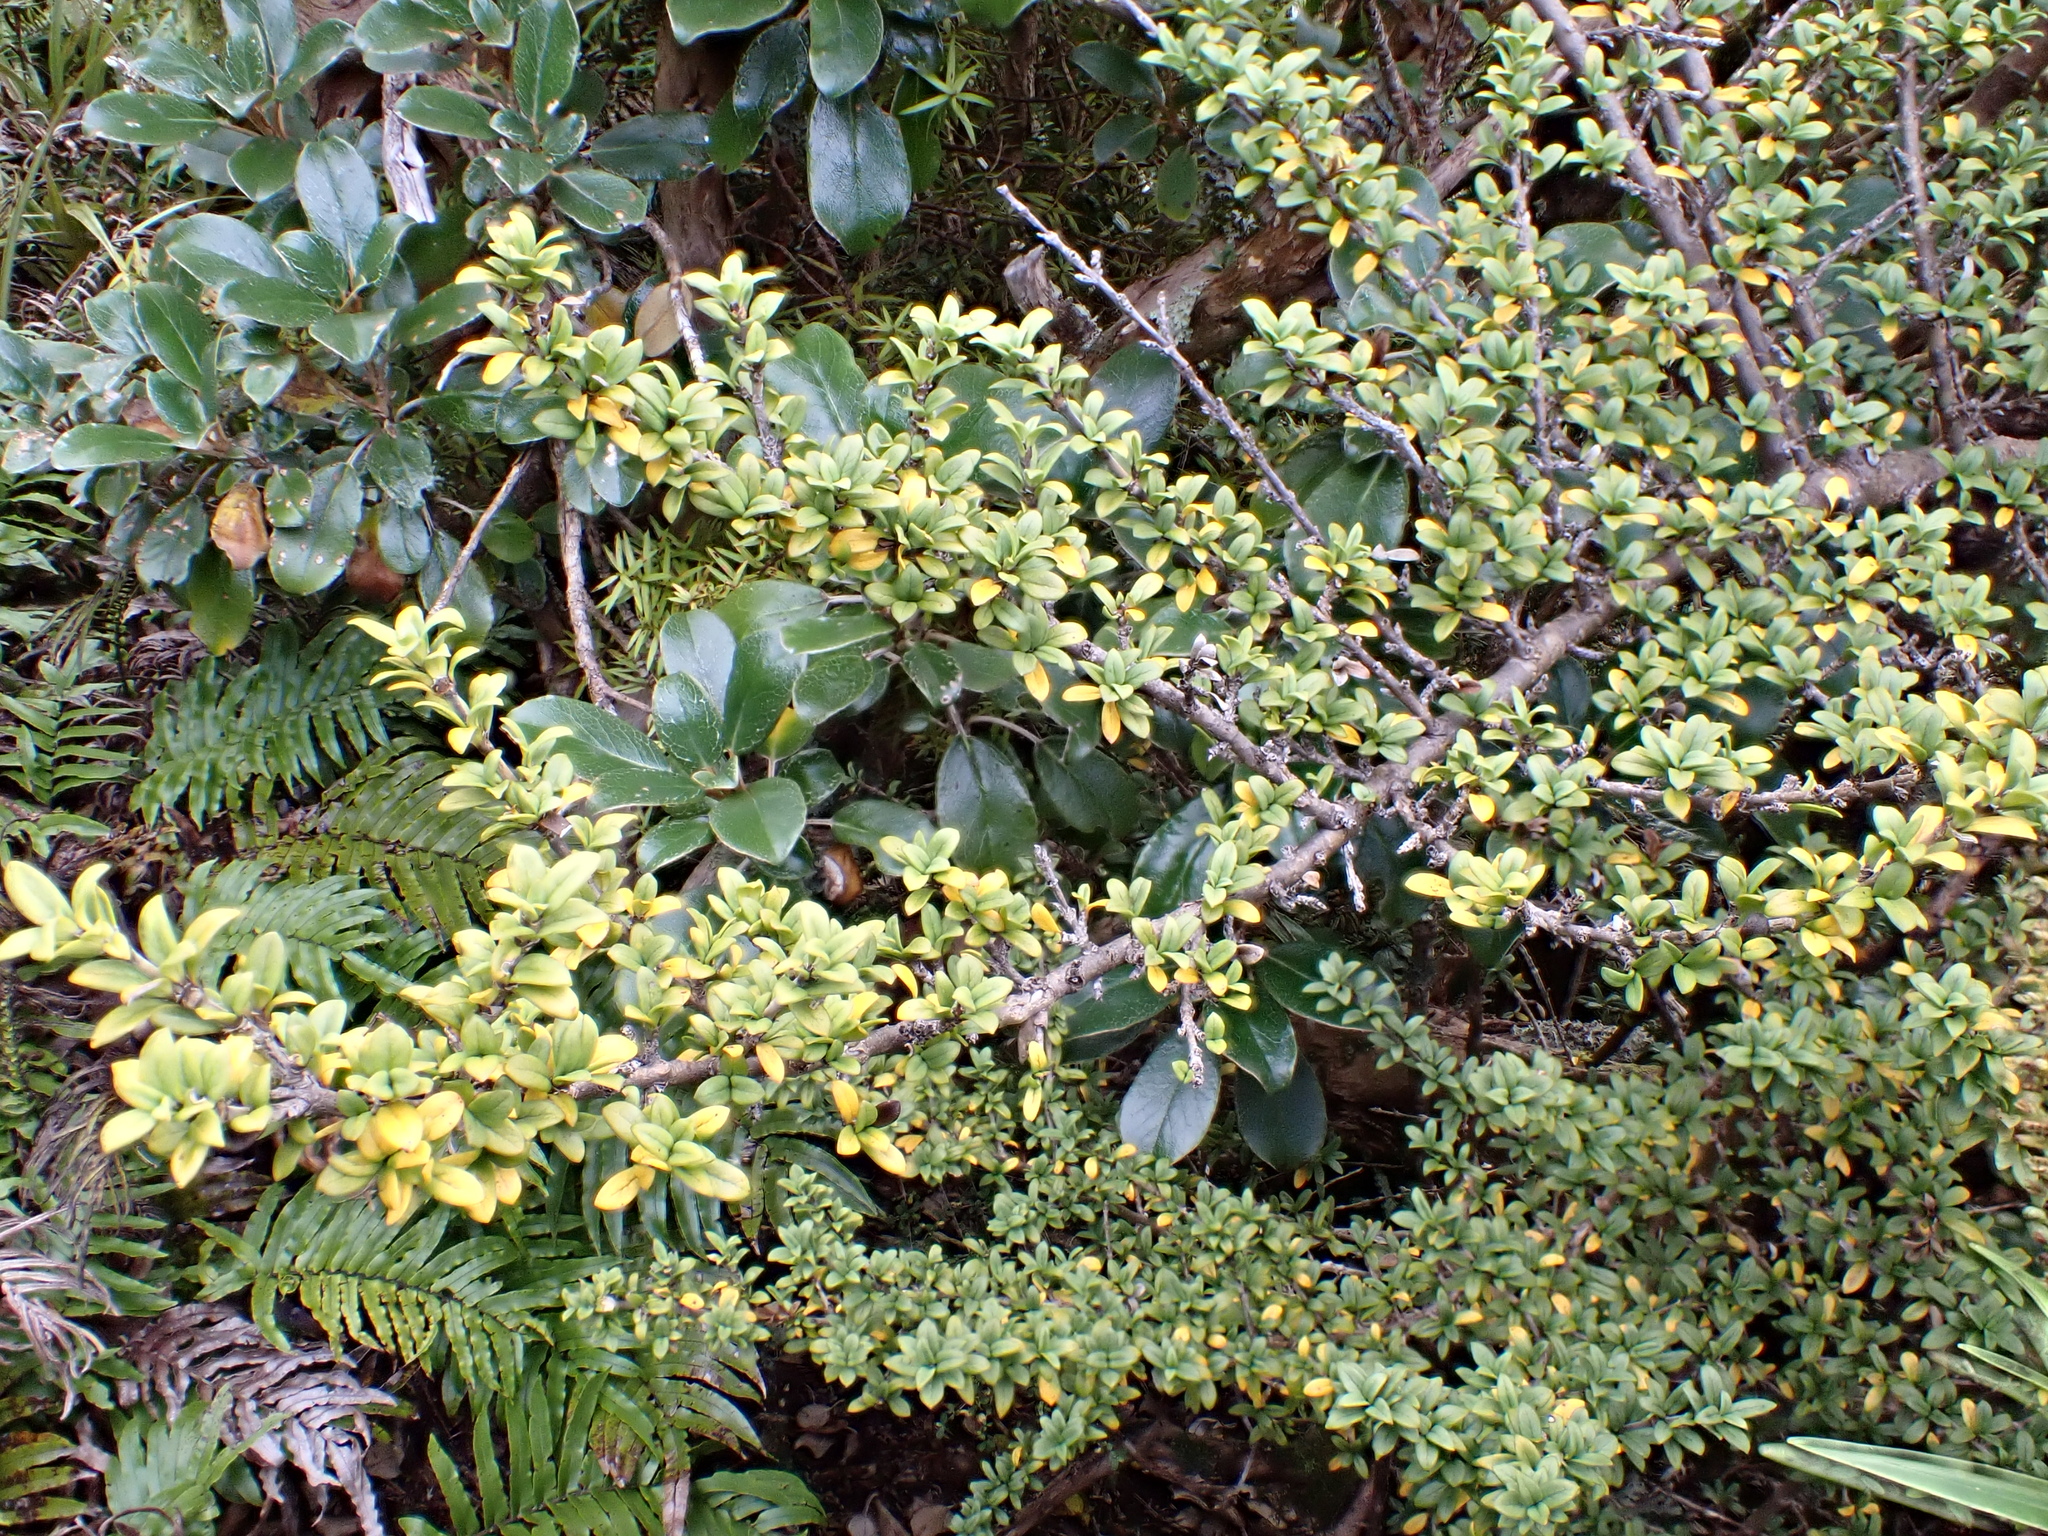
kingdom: Plantae
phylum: Tracheophyta
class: Magnoliopsida
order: Gentianales
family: Rubiaceae
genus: Coprosma
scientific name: Coprosma pseudocuneata
